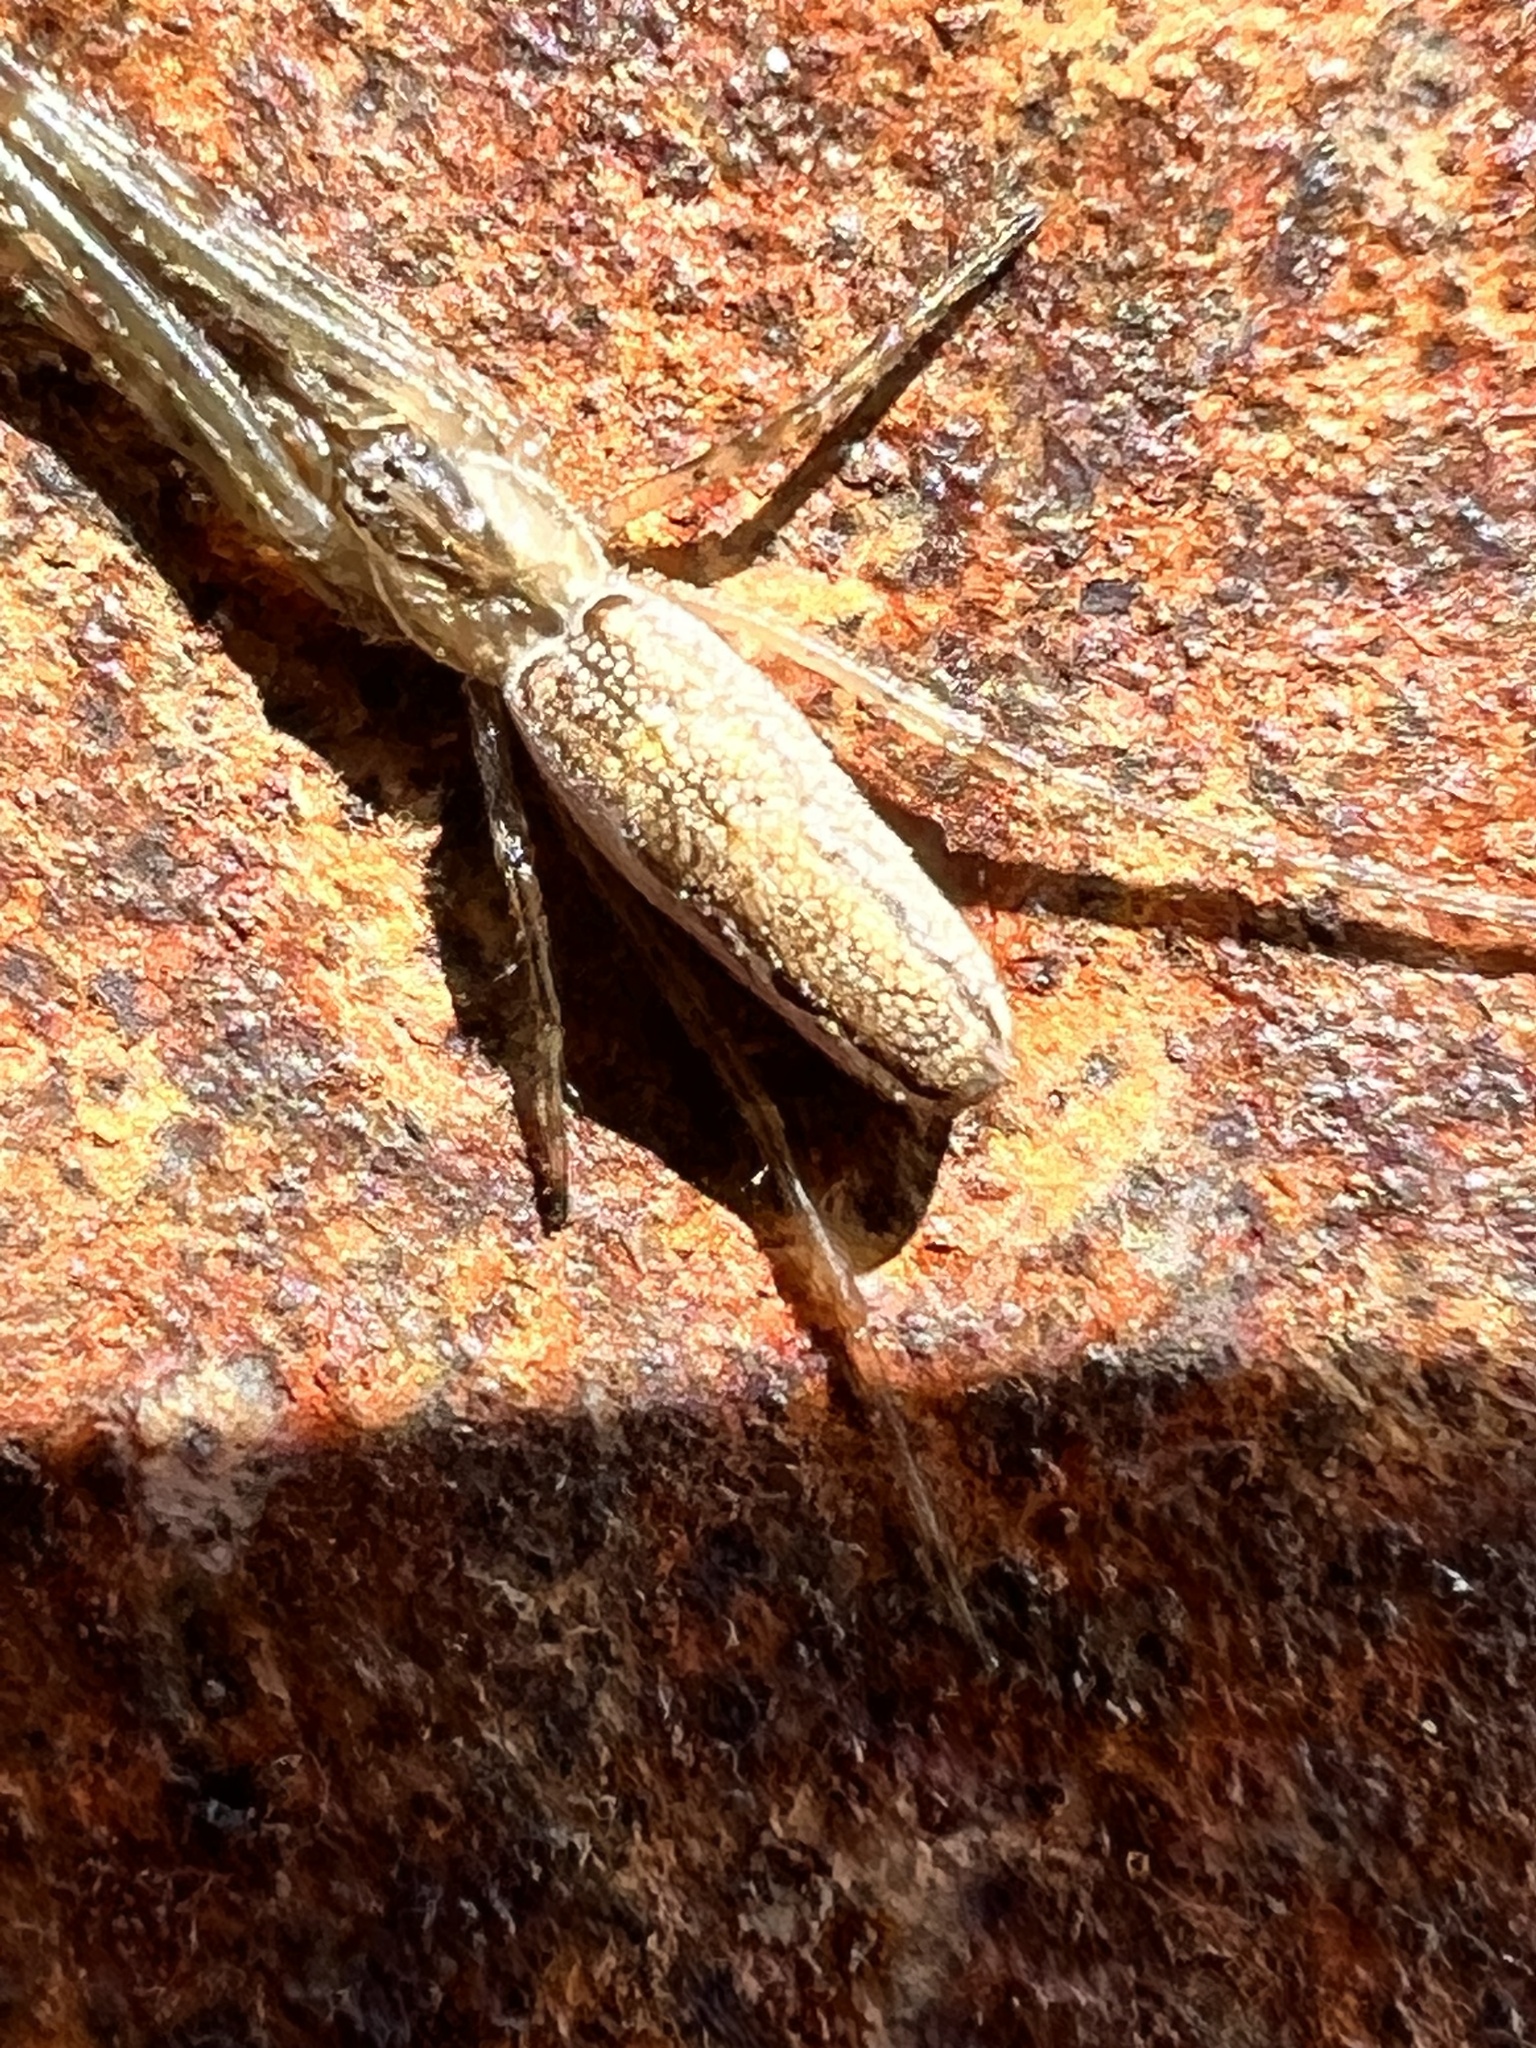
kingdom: Animalia
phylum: Arthropoda
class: Arachnida
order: Araneae
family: Tetragnathidae
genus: Tetragnatha
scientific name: Tetragnatha versicolor
